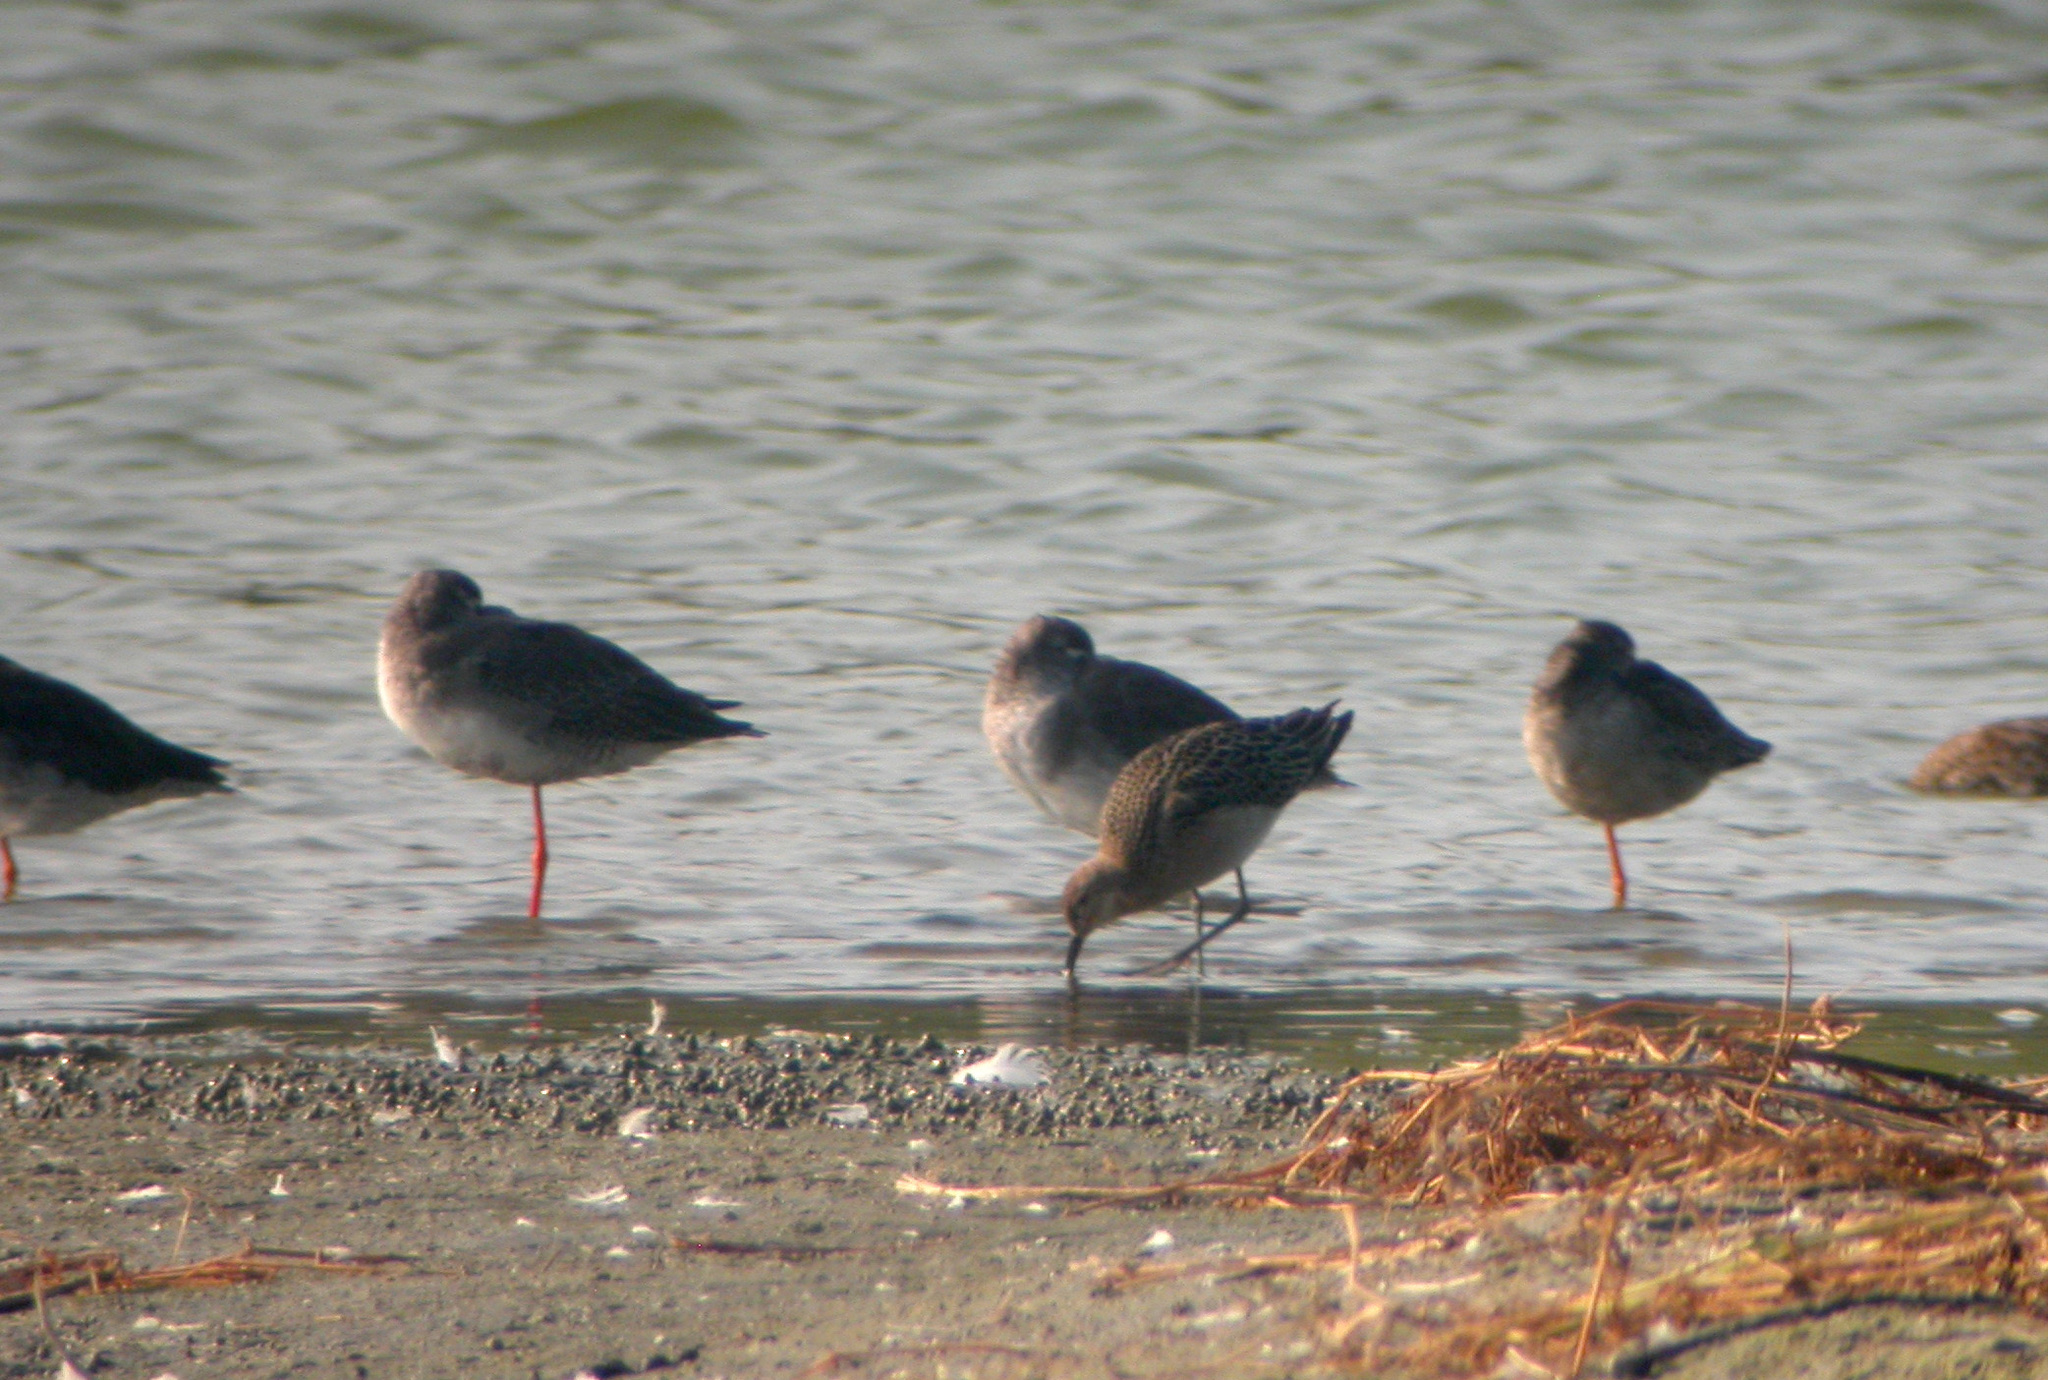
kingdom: Animalia
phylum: Chordata
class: Aves
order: Charadriiformes
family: Scolopacidae
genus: Calidris
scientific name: Calidris pugnax
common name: Ruff
